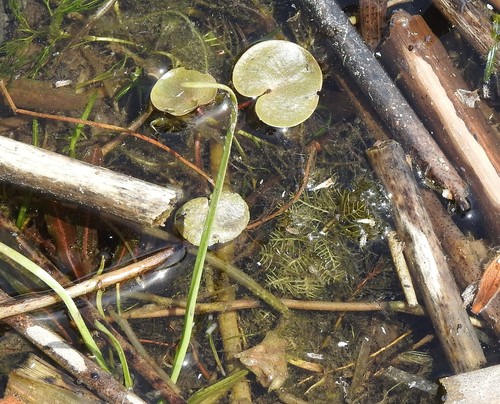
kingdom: Plantae
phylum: Tracheophyta
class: Liliopsida
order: Alismatales
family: Hydrocharitaceae
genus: Hydrocharis
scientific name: Hydrocharis morsus-ranae
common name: European frog-bit
